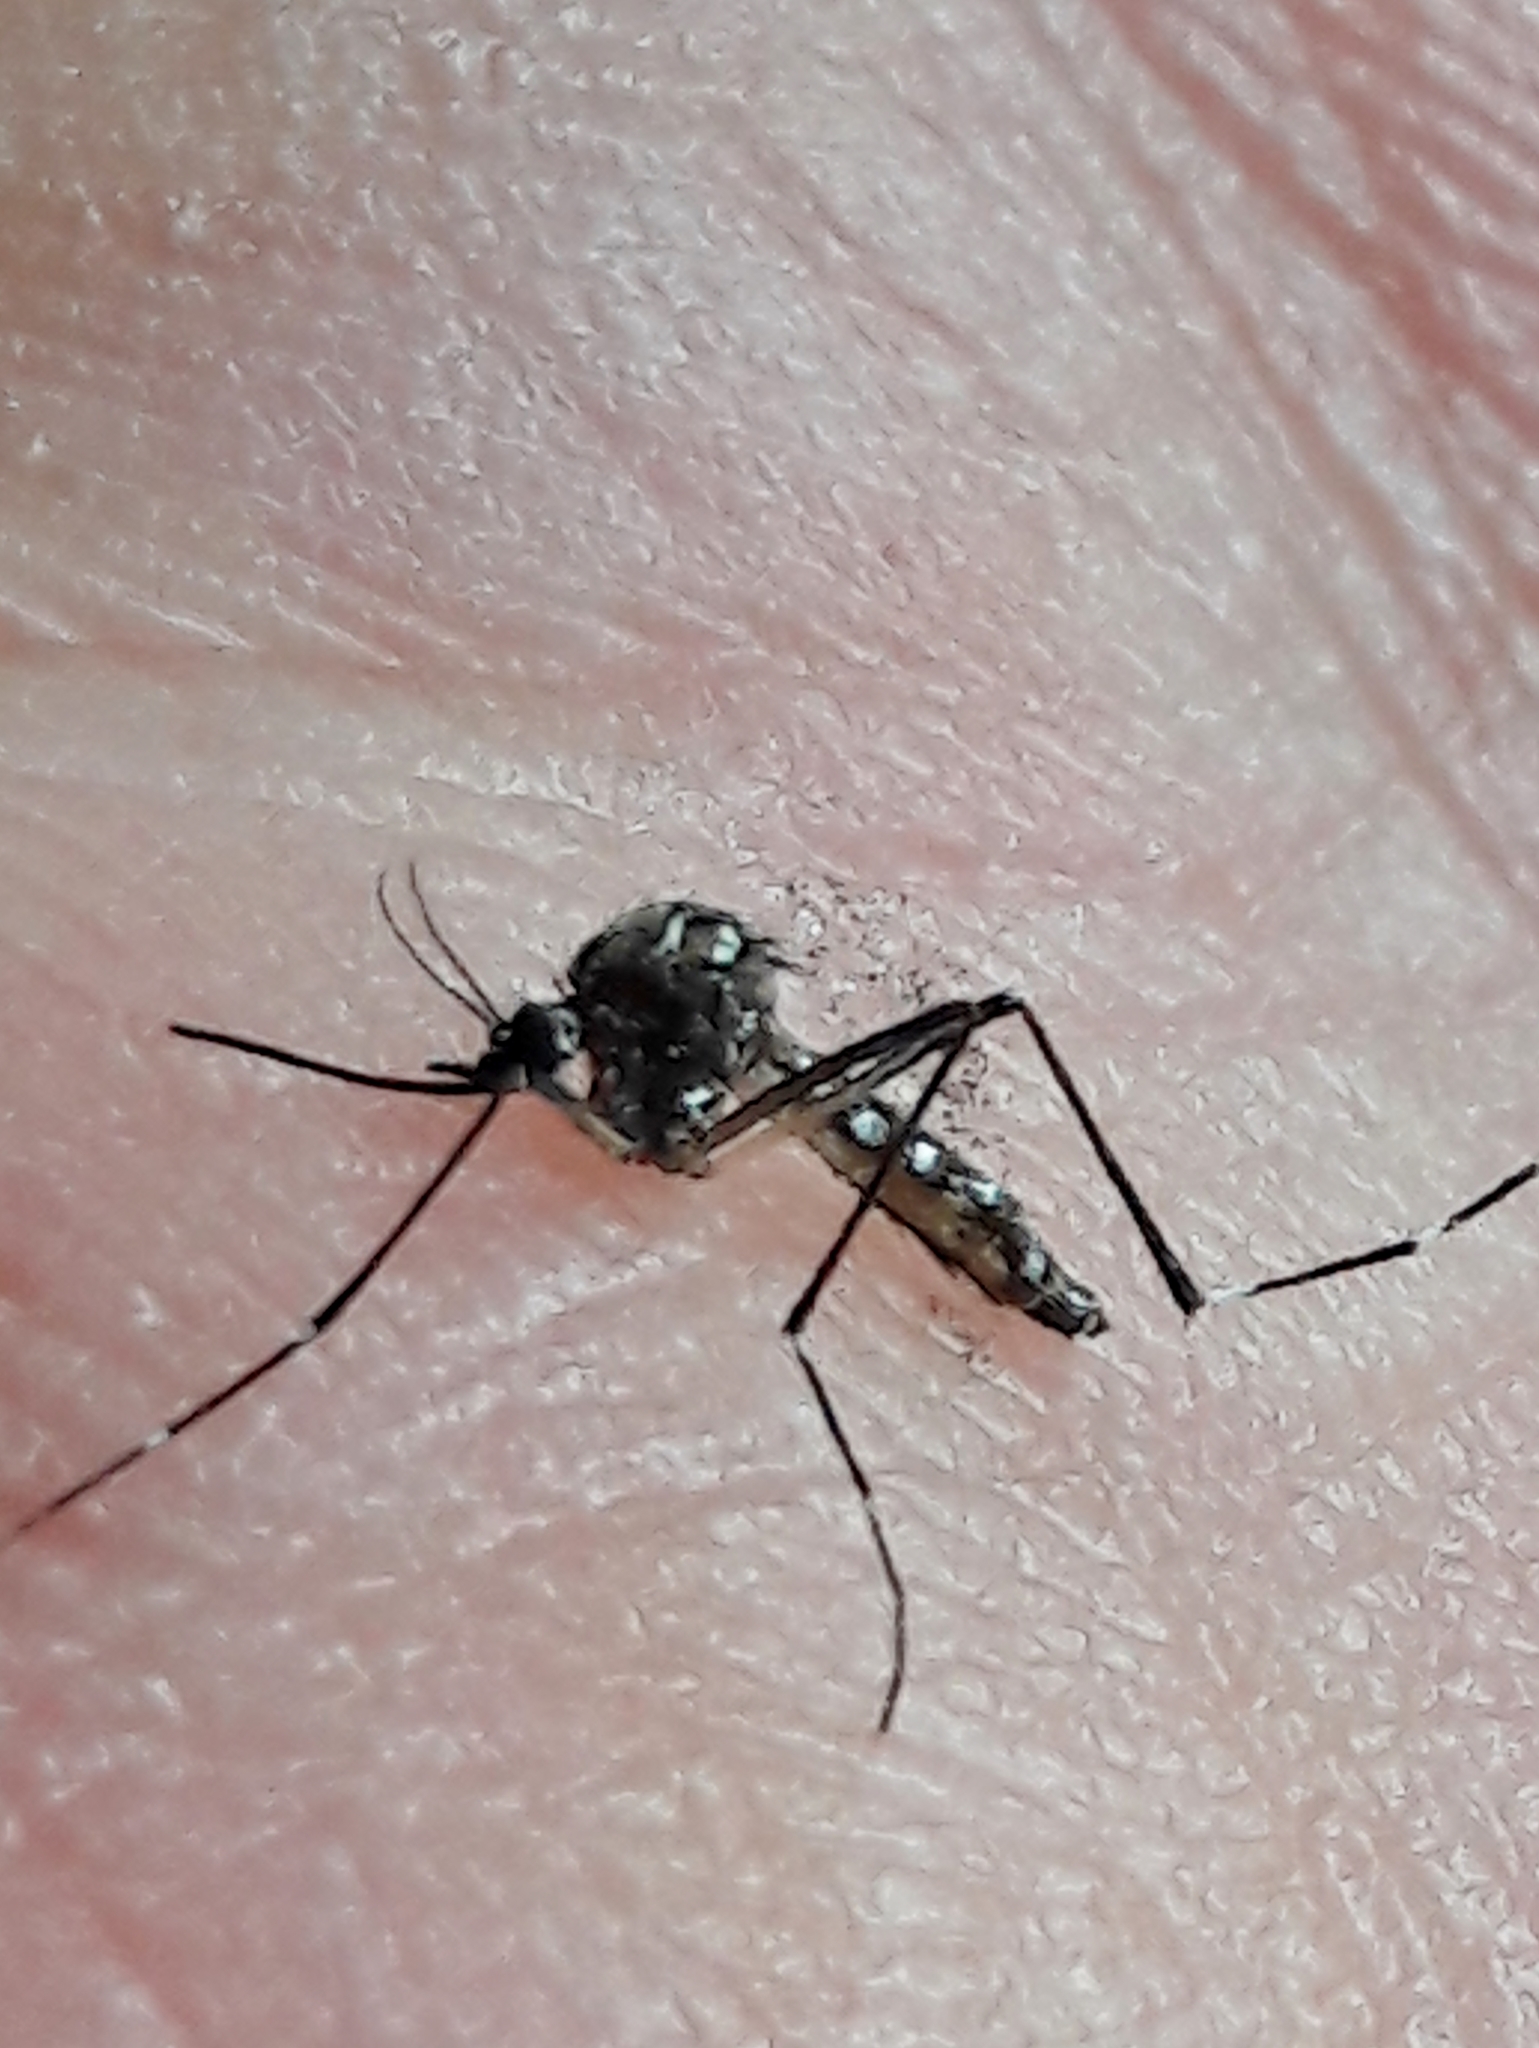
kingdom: Animalia
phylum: Arthropoda
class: Insecta
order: Diptera
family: Culicidae
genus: Aedes
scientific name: Aedes aegypti
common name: Yellow fever mosquito
